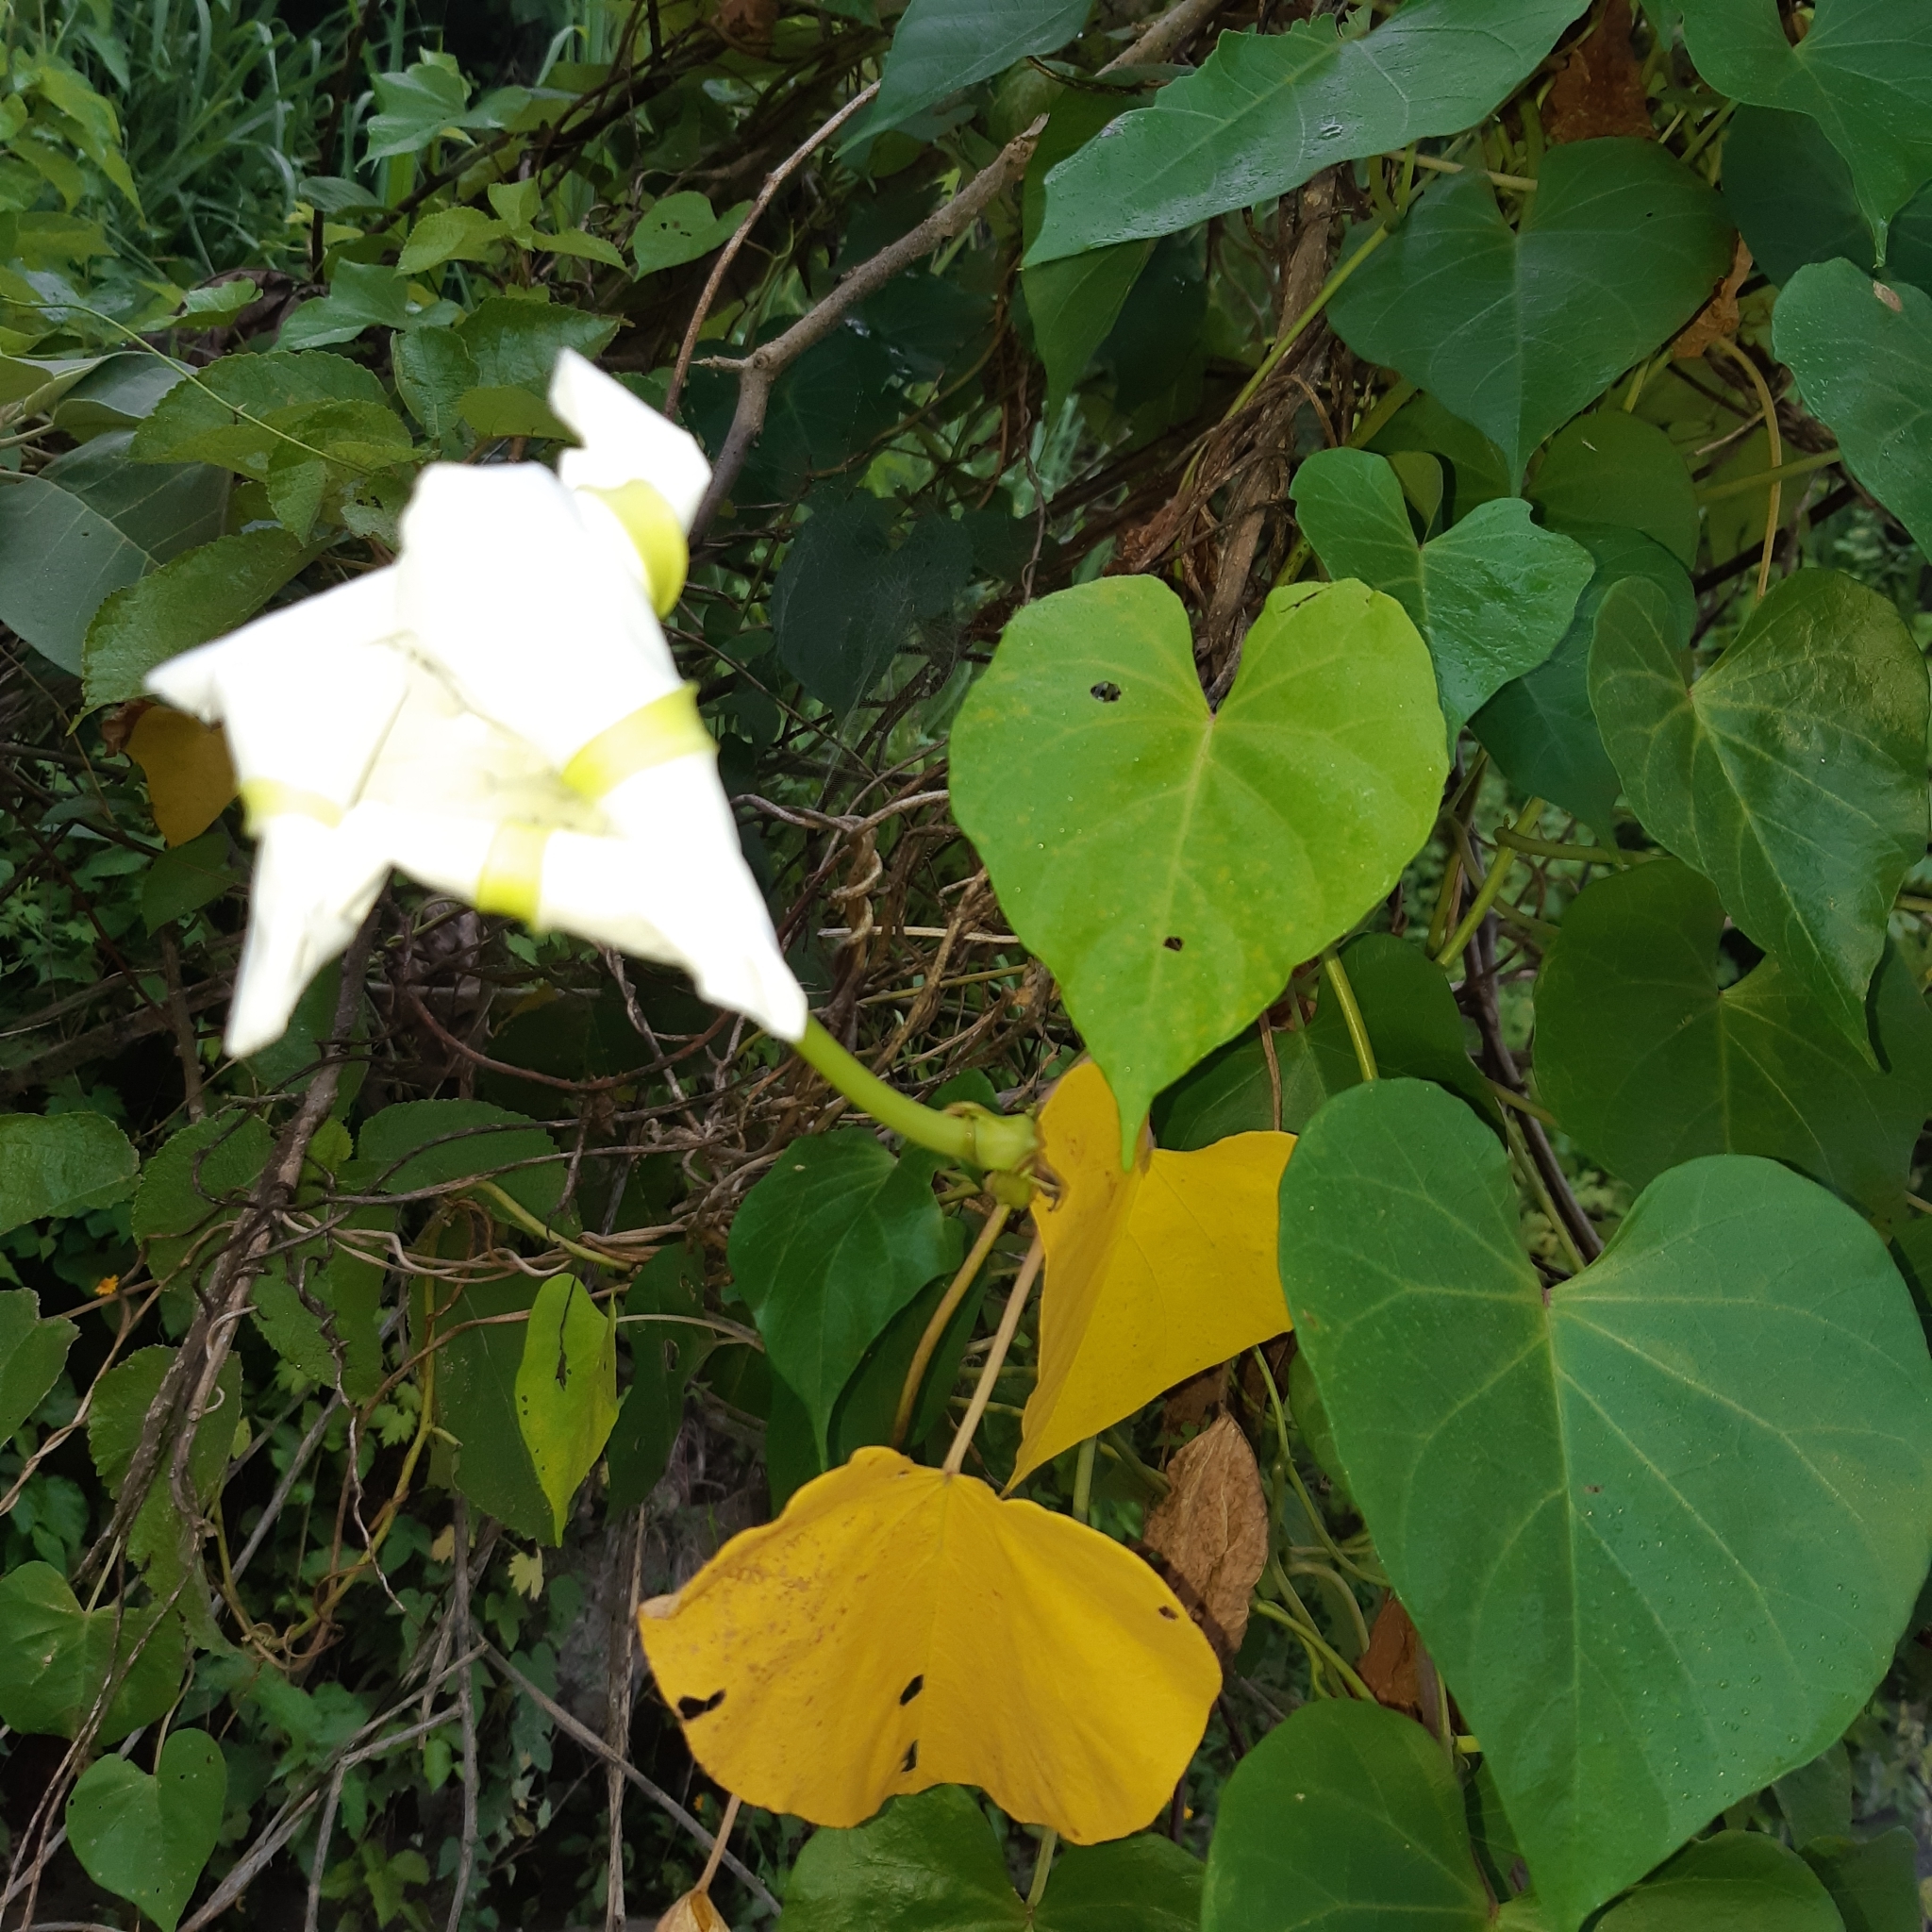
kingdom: Plantae
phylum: Tracheophyta
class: Magnoliopsida
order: Solanales
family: Convolvulaceae
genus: Ipomoea
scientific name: Ipomoea alba
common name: Moonflower
